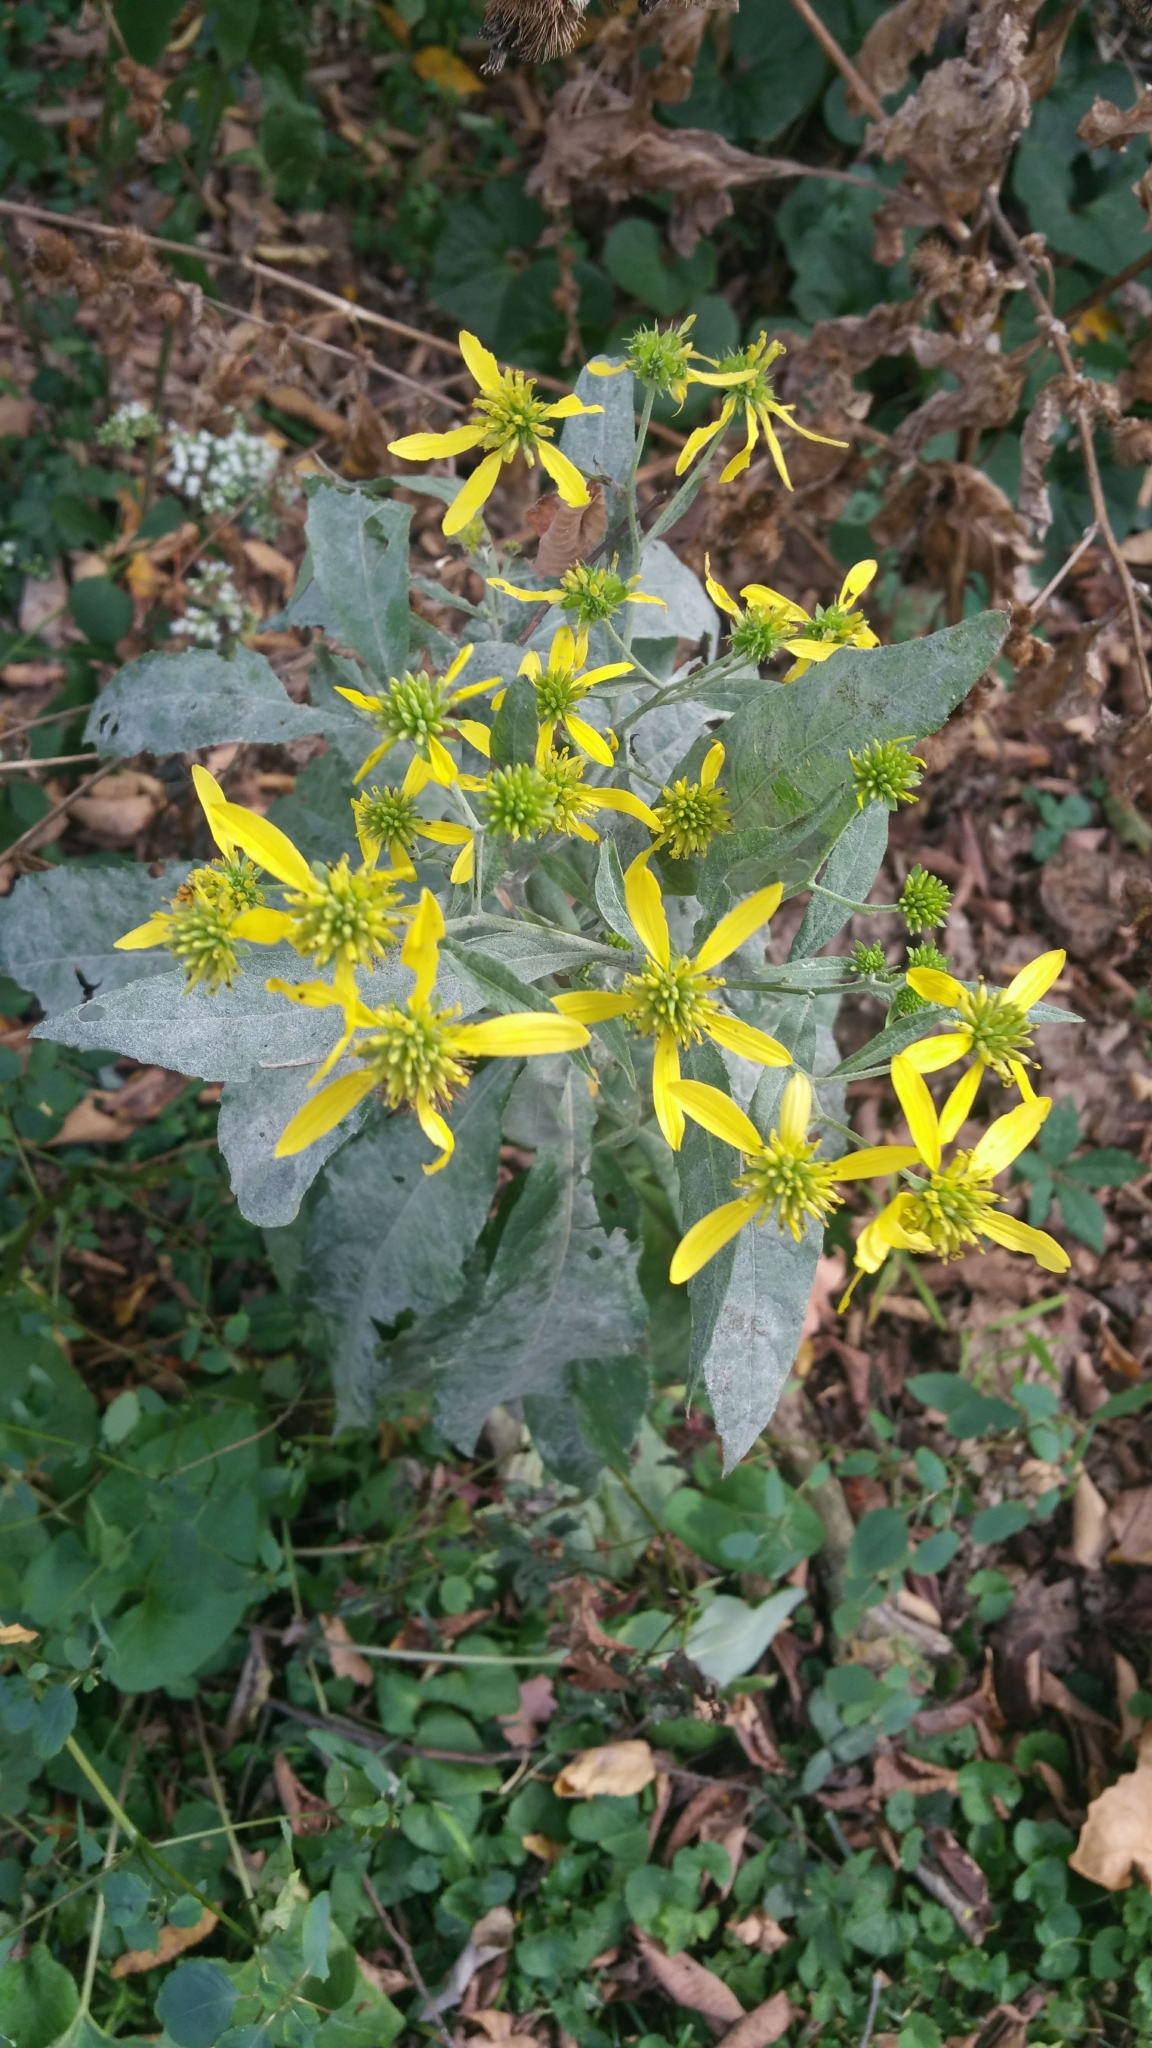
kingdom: Plantae
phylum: Tracheophyta
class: Magnoliopsida
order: Asterales
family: Asteraceae
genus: Verbesina
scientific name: Verbesina alternifolia
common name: Wingstem
